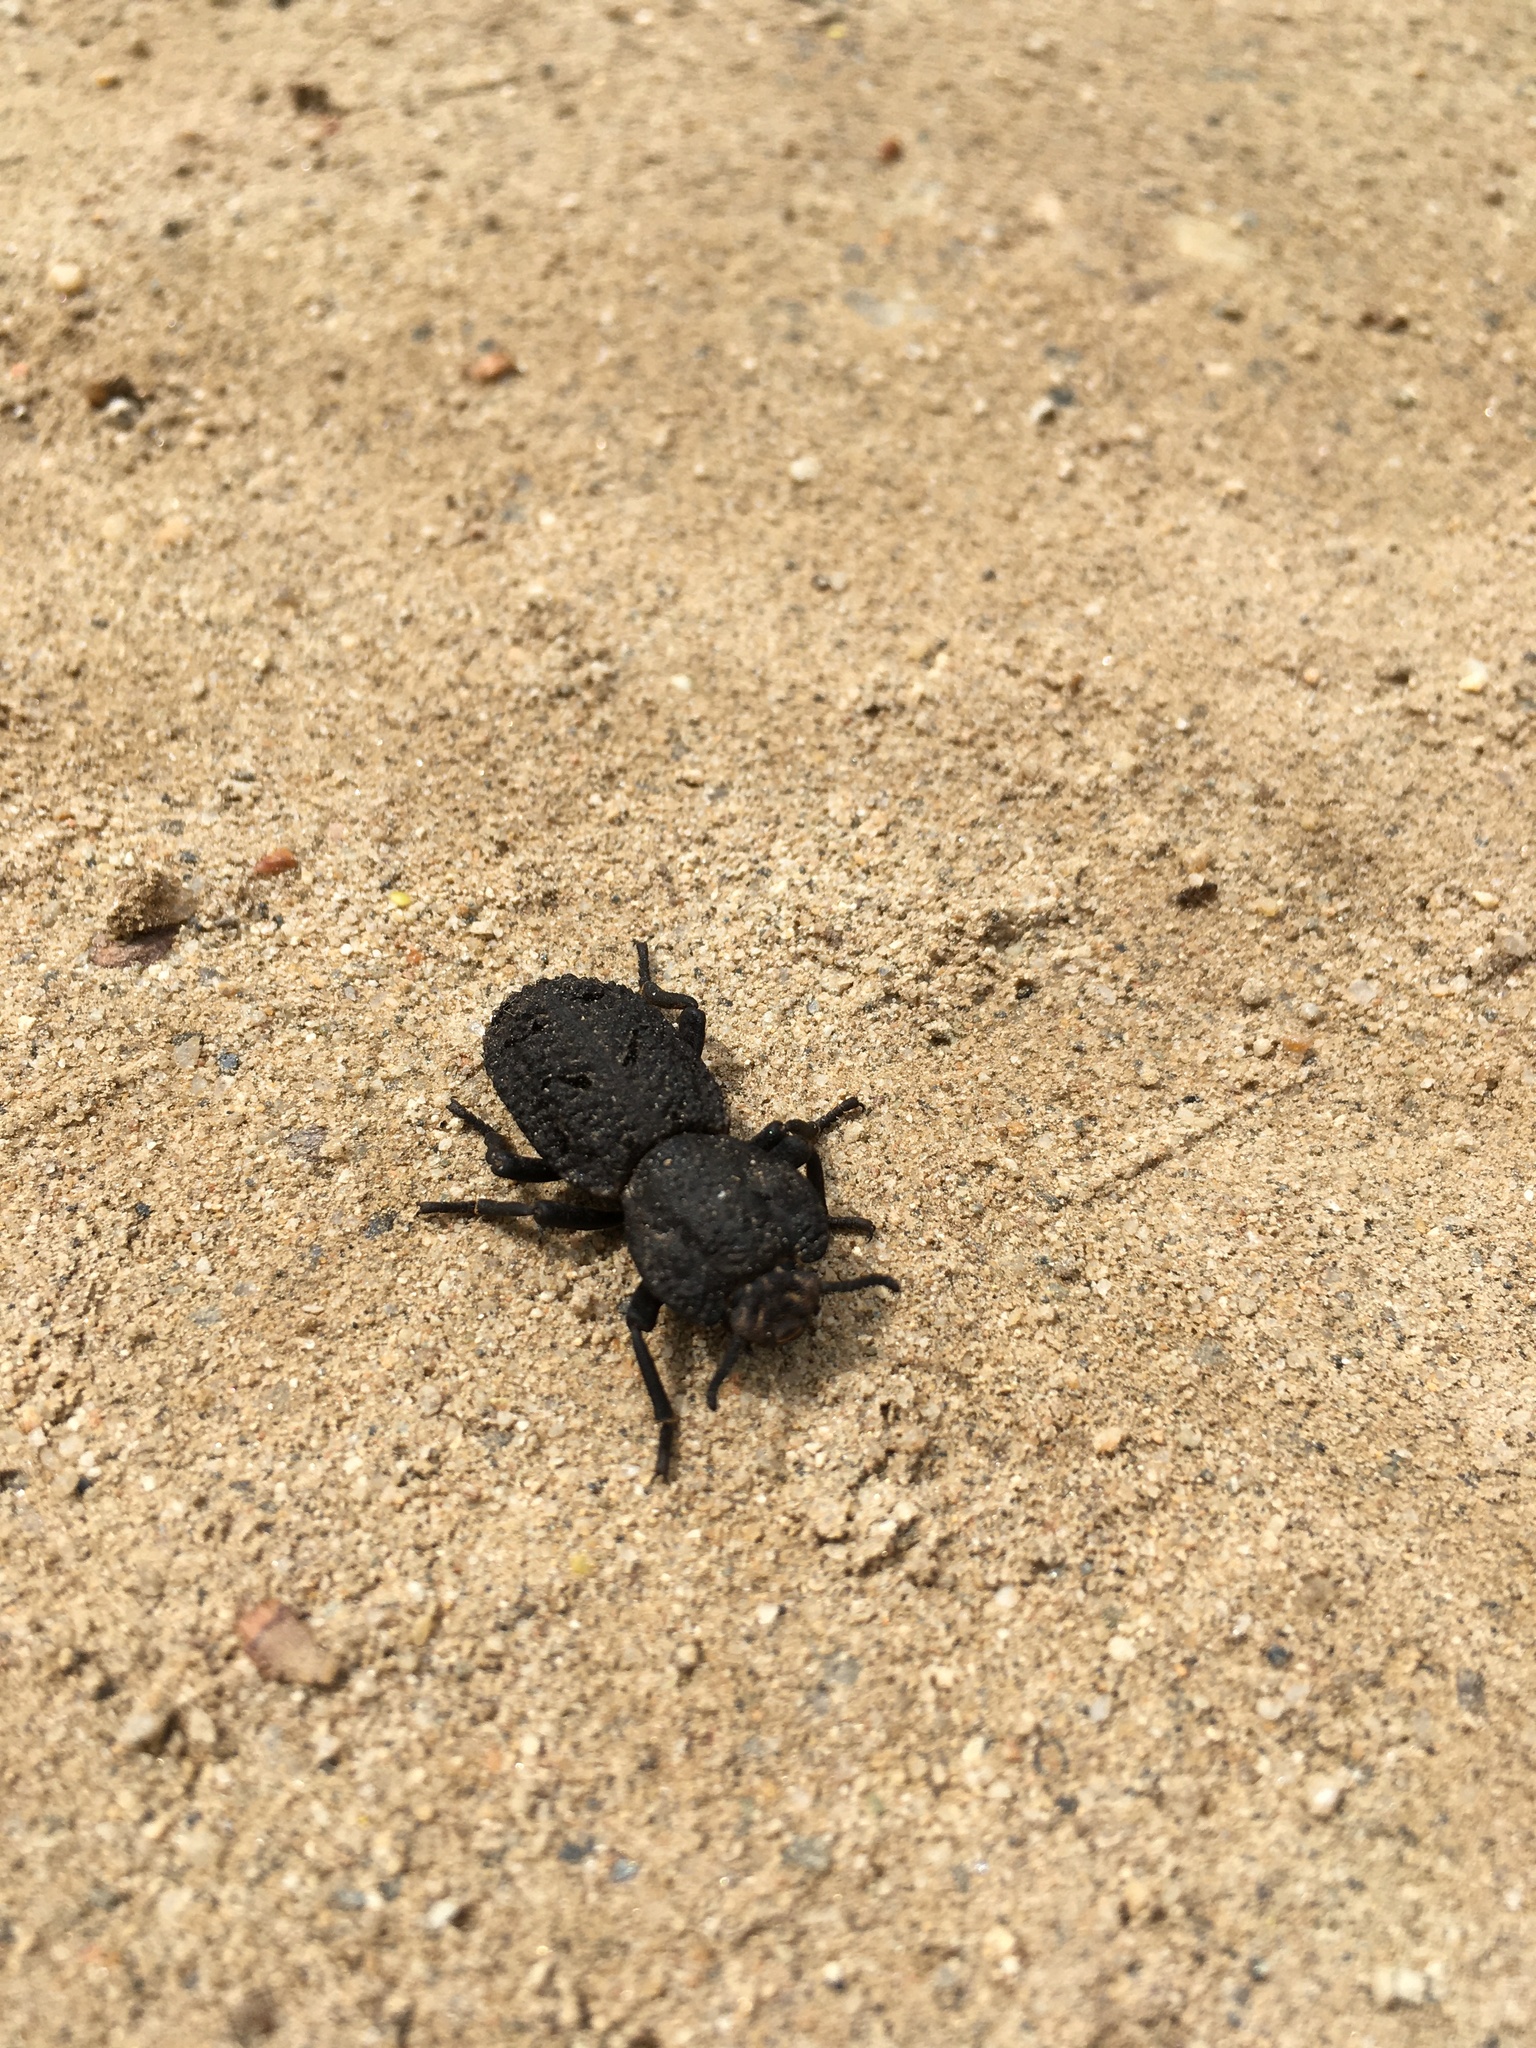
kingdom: Animalia
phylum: Arthropoda
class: Insecta
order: Coleoptera
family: Zopheridae
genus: Phloeodes
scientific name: Phloeodes diabolicus
